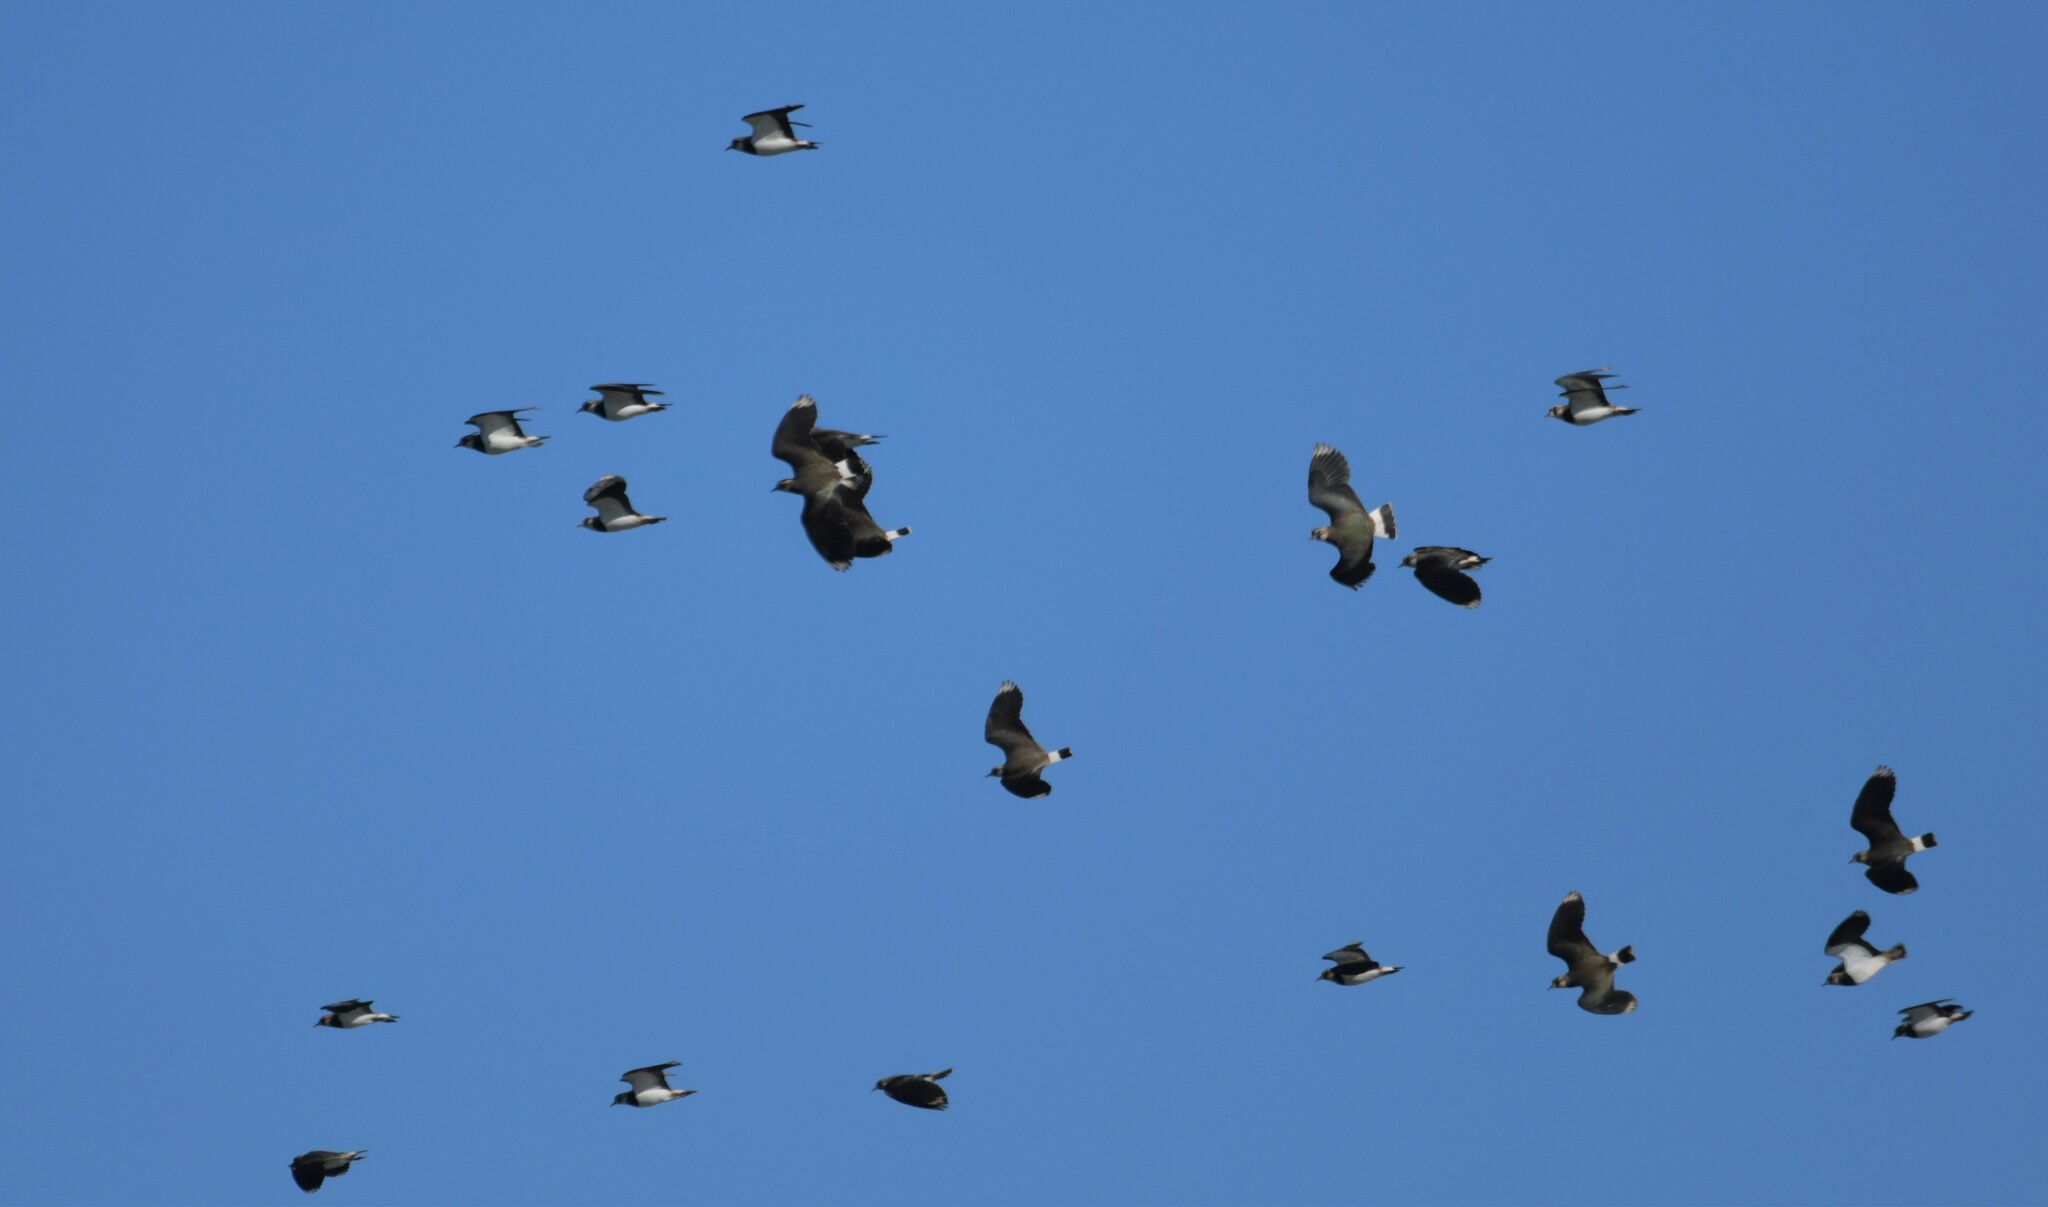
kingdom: Animalia
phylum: Chordata
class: Aves
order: Charadriiformes
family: Charadriidae
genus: Vanellus
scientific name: Vanellus vanellus
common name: Northern lapwing
